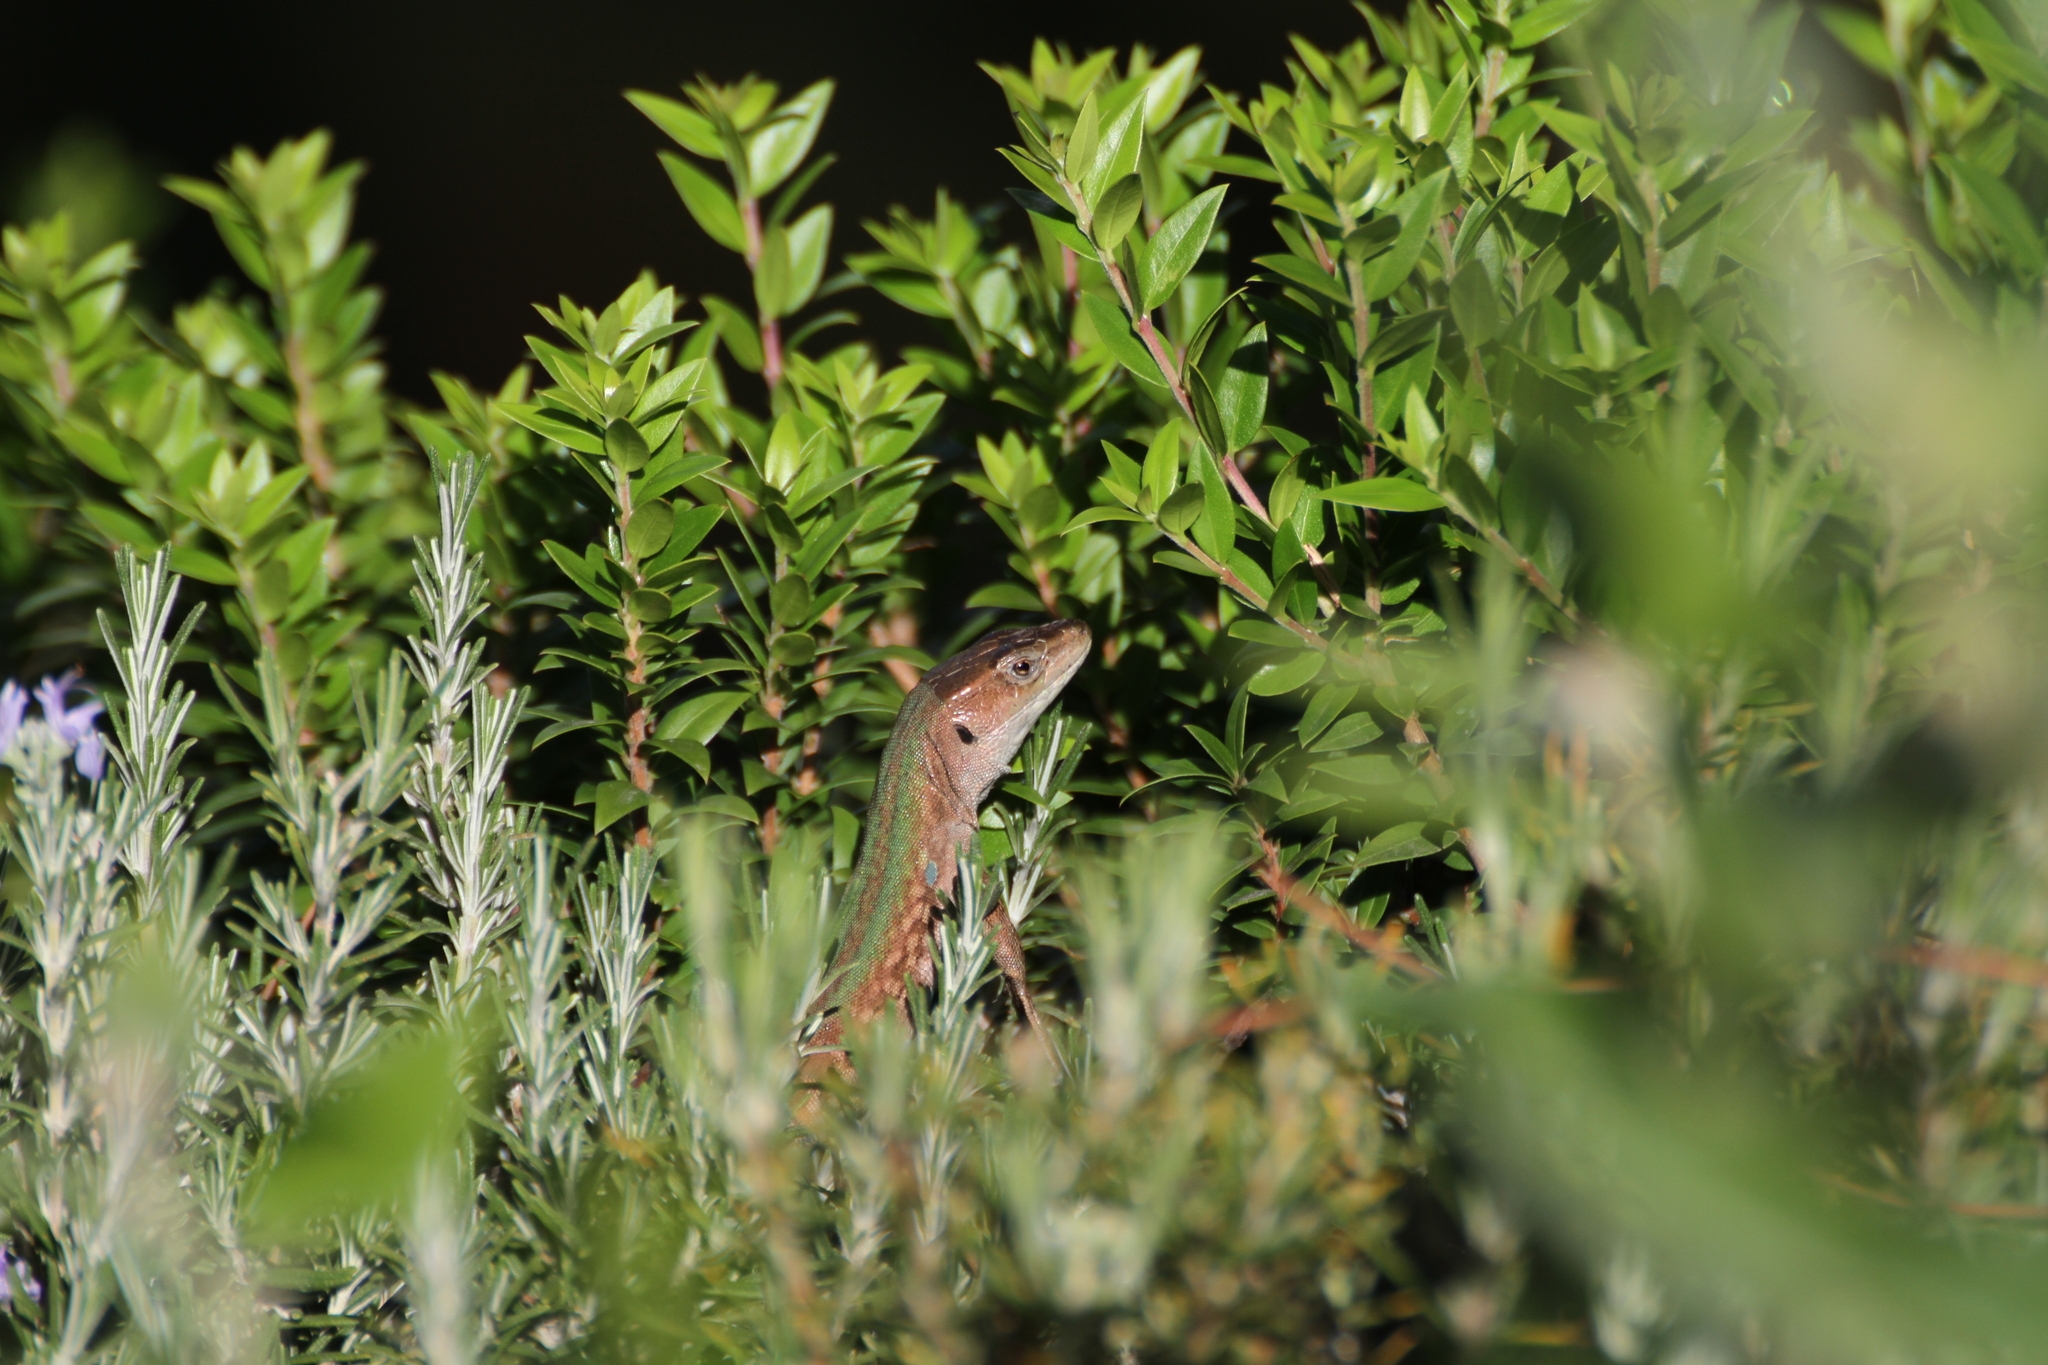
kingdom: Animalia
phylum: Chordata
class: Squamata
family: Lacertidae
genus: Podarcis
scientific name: Podarcis siculus
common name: Italian wall lizard
